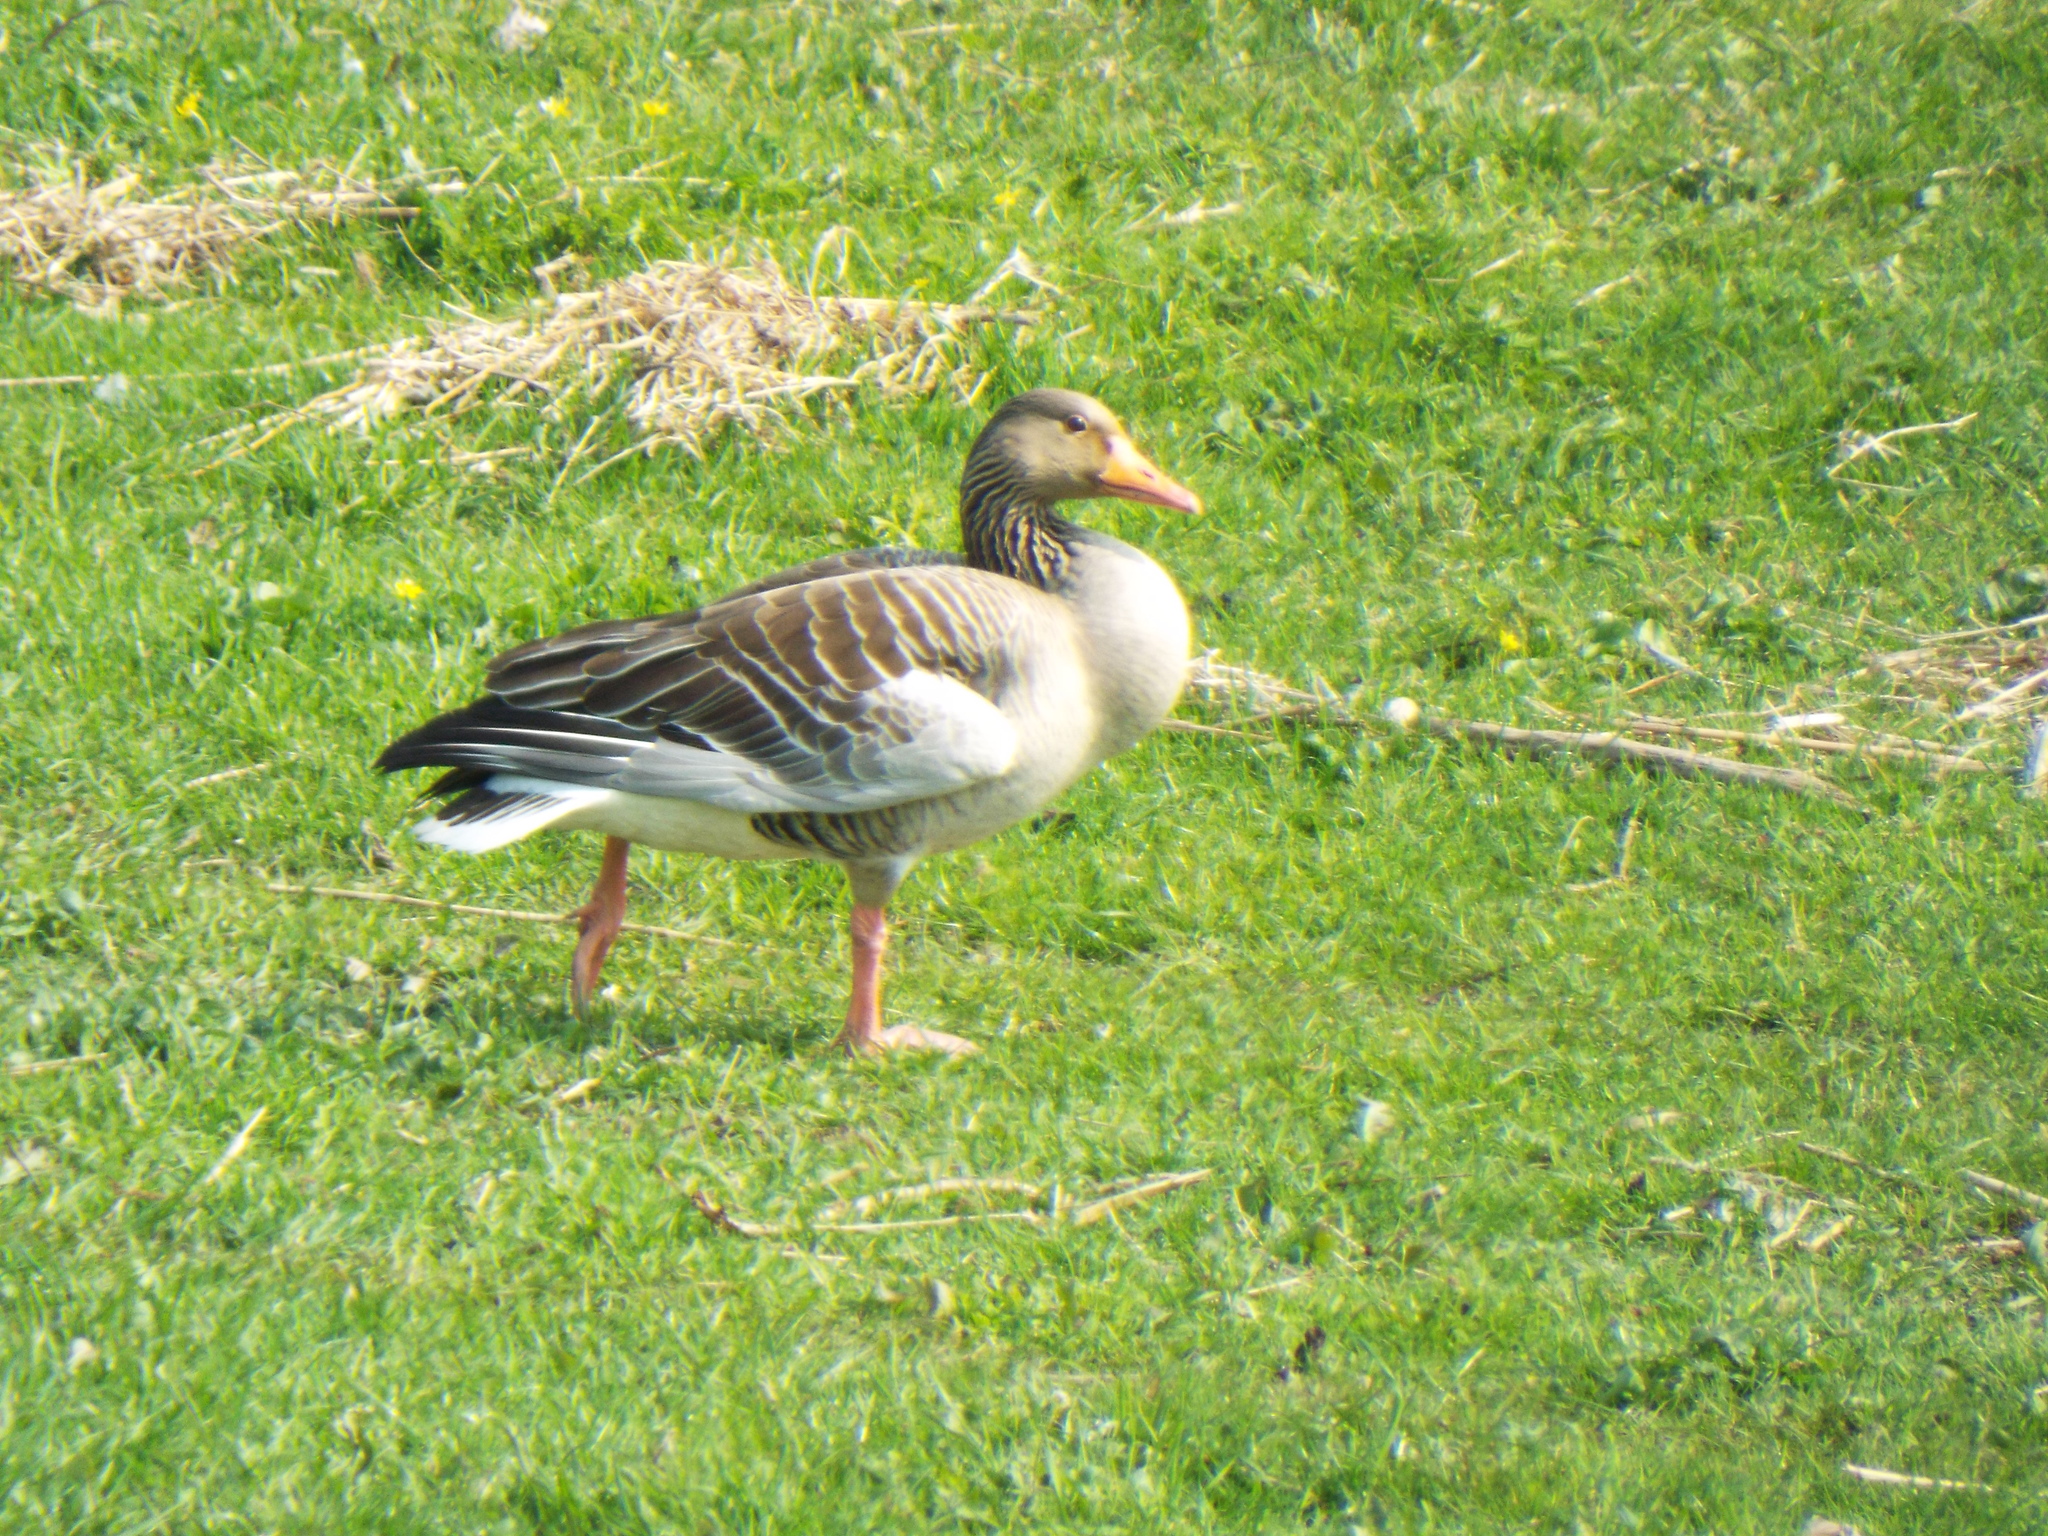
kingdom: Animalia
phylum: Chordata
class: Aves
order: Anseriformes
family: Anatidae
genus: Anser
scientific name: Anser anser
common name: Greylag goose
